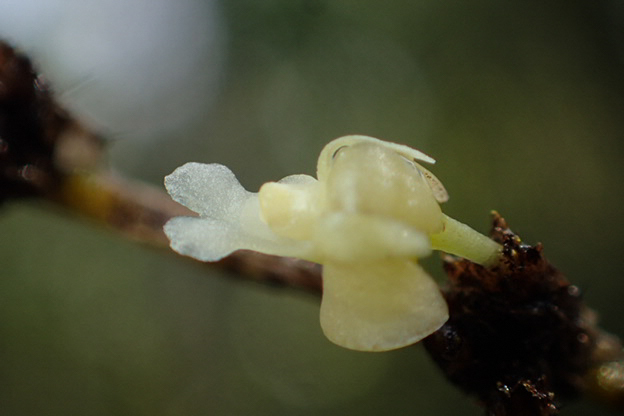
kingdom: Plantae
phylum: Tracheophyta
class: Liliopsida
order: Asparagales
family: Orchidaceae
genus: Dendrobium
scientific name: Dendrobium aloifolium
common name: Aloe-like dendrobium
